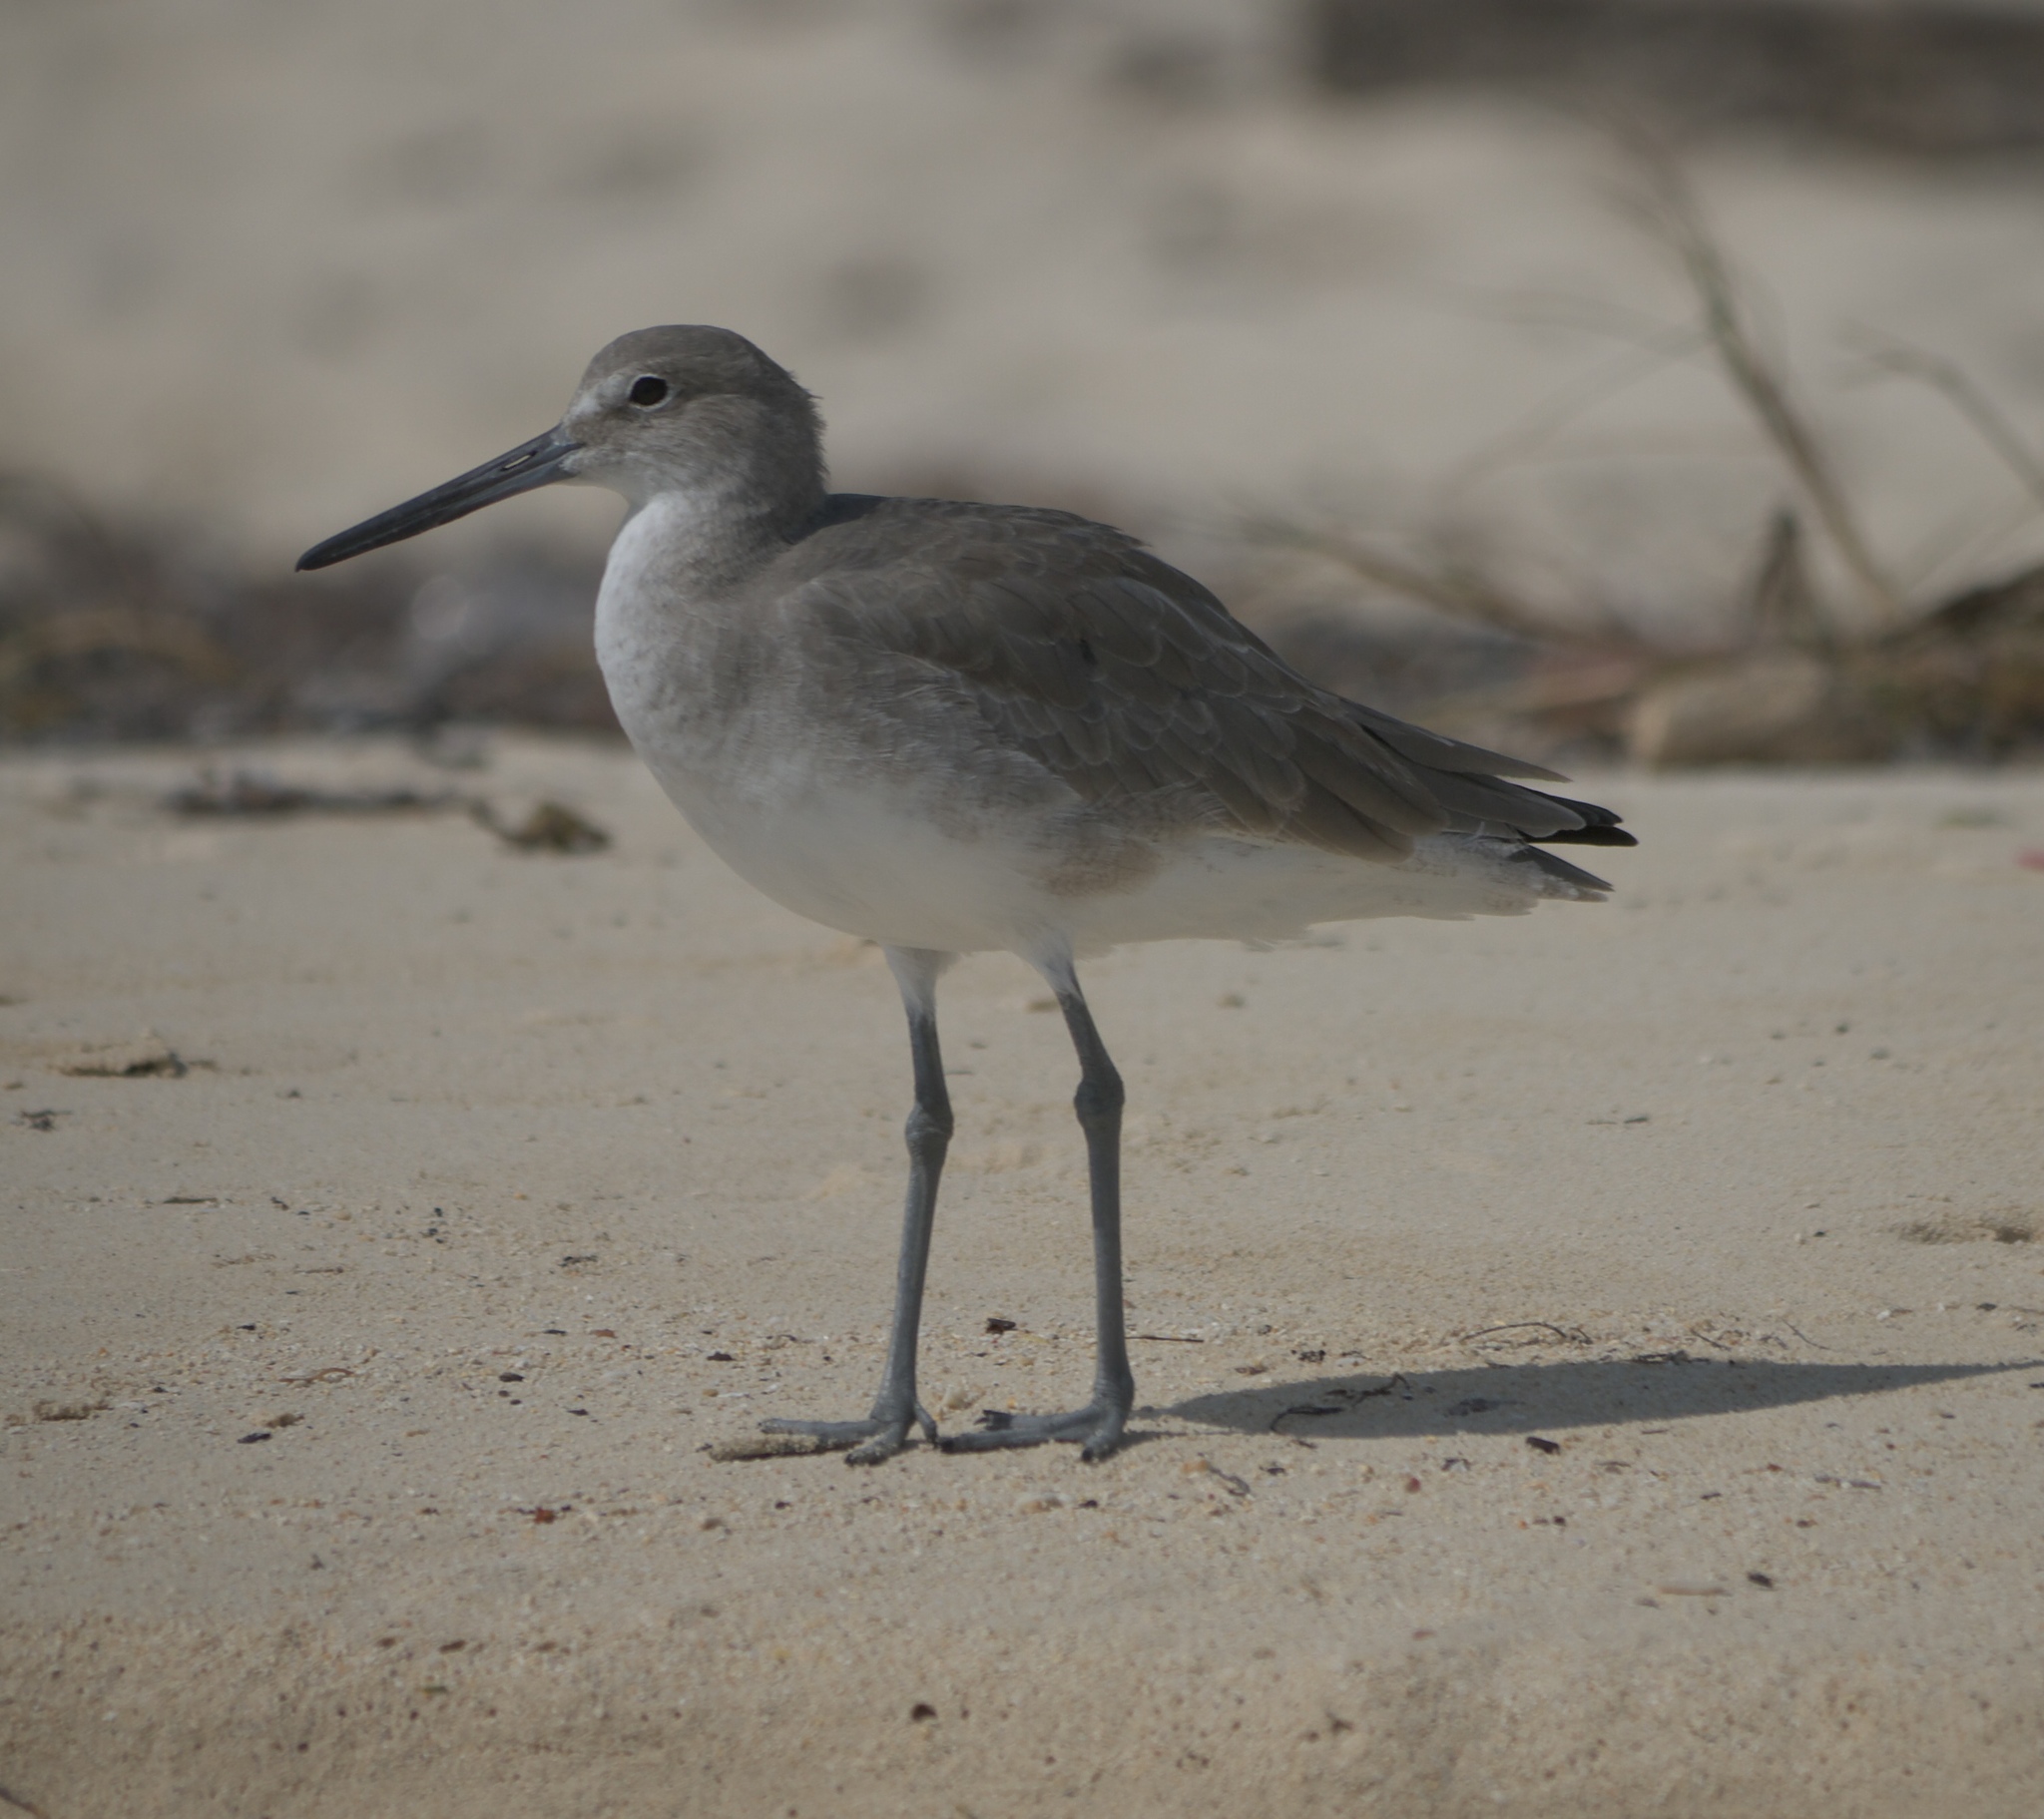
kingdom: Animalia
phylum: Chordata
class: Aves
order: Charadriiformes
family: Scolopacidae
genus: Tringa
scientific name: Tringa semipalmata
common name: Willet
